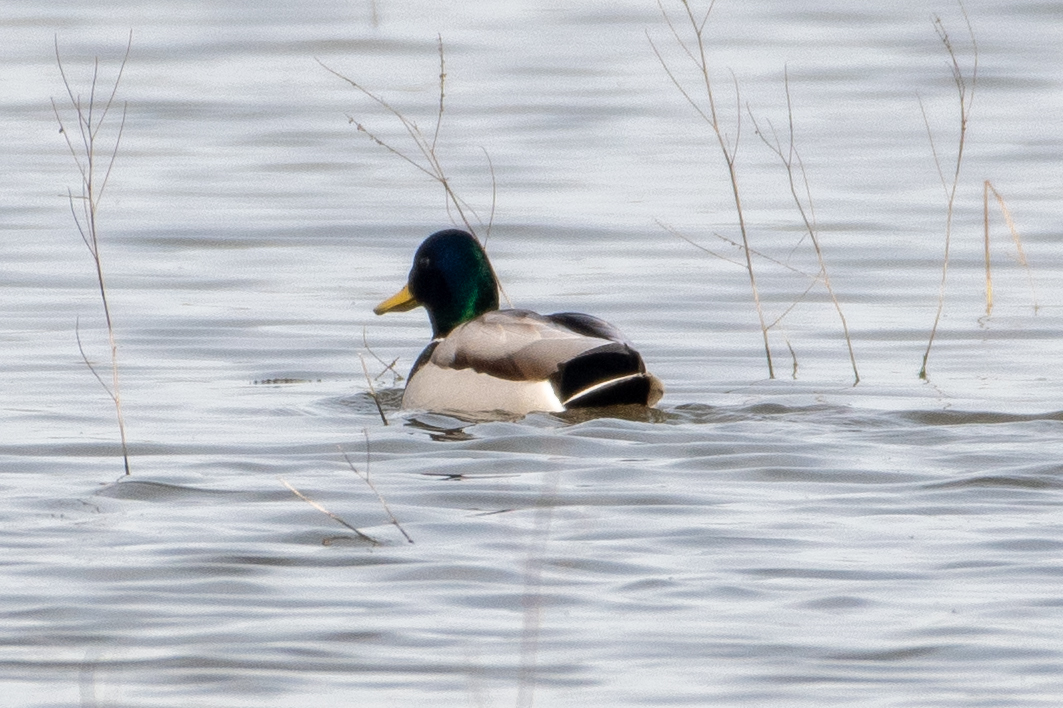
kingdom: Animalia
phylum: Chordata
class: Aves
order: Anseriformes
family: Anatidae
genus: Anas
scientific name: Anas platyrhynchos
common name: Mallard
